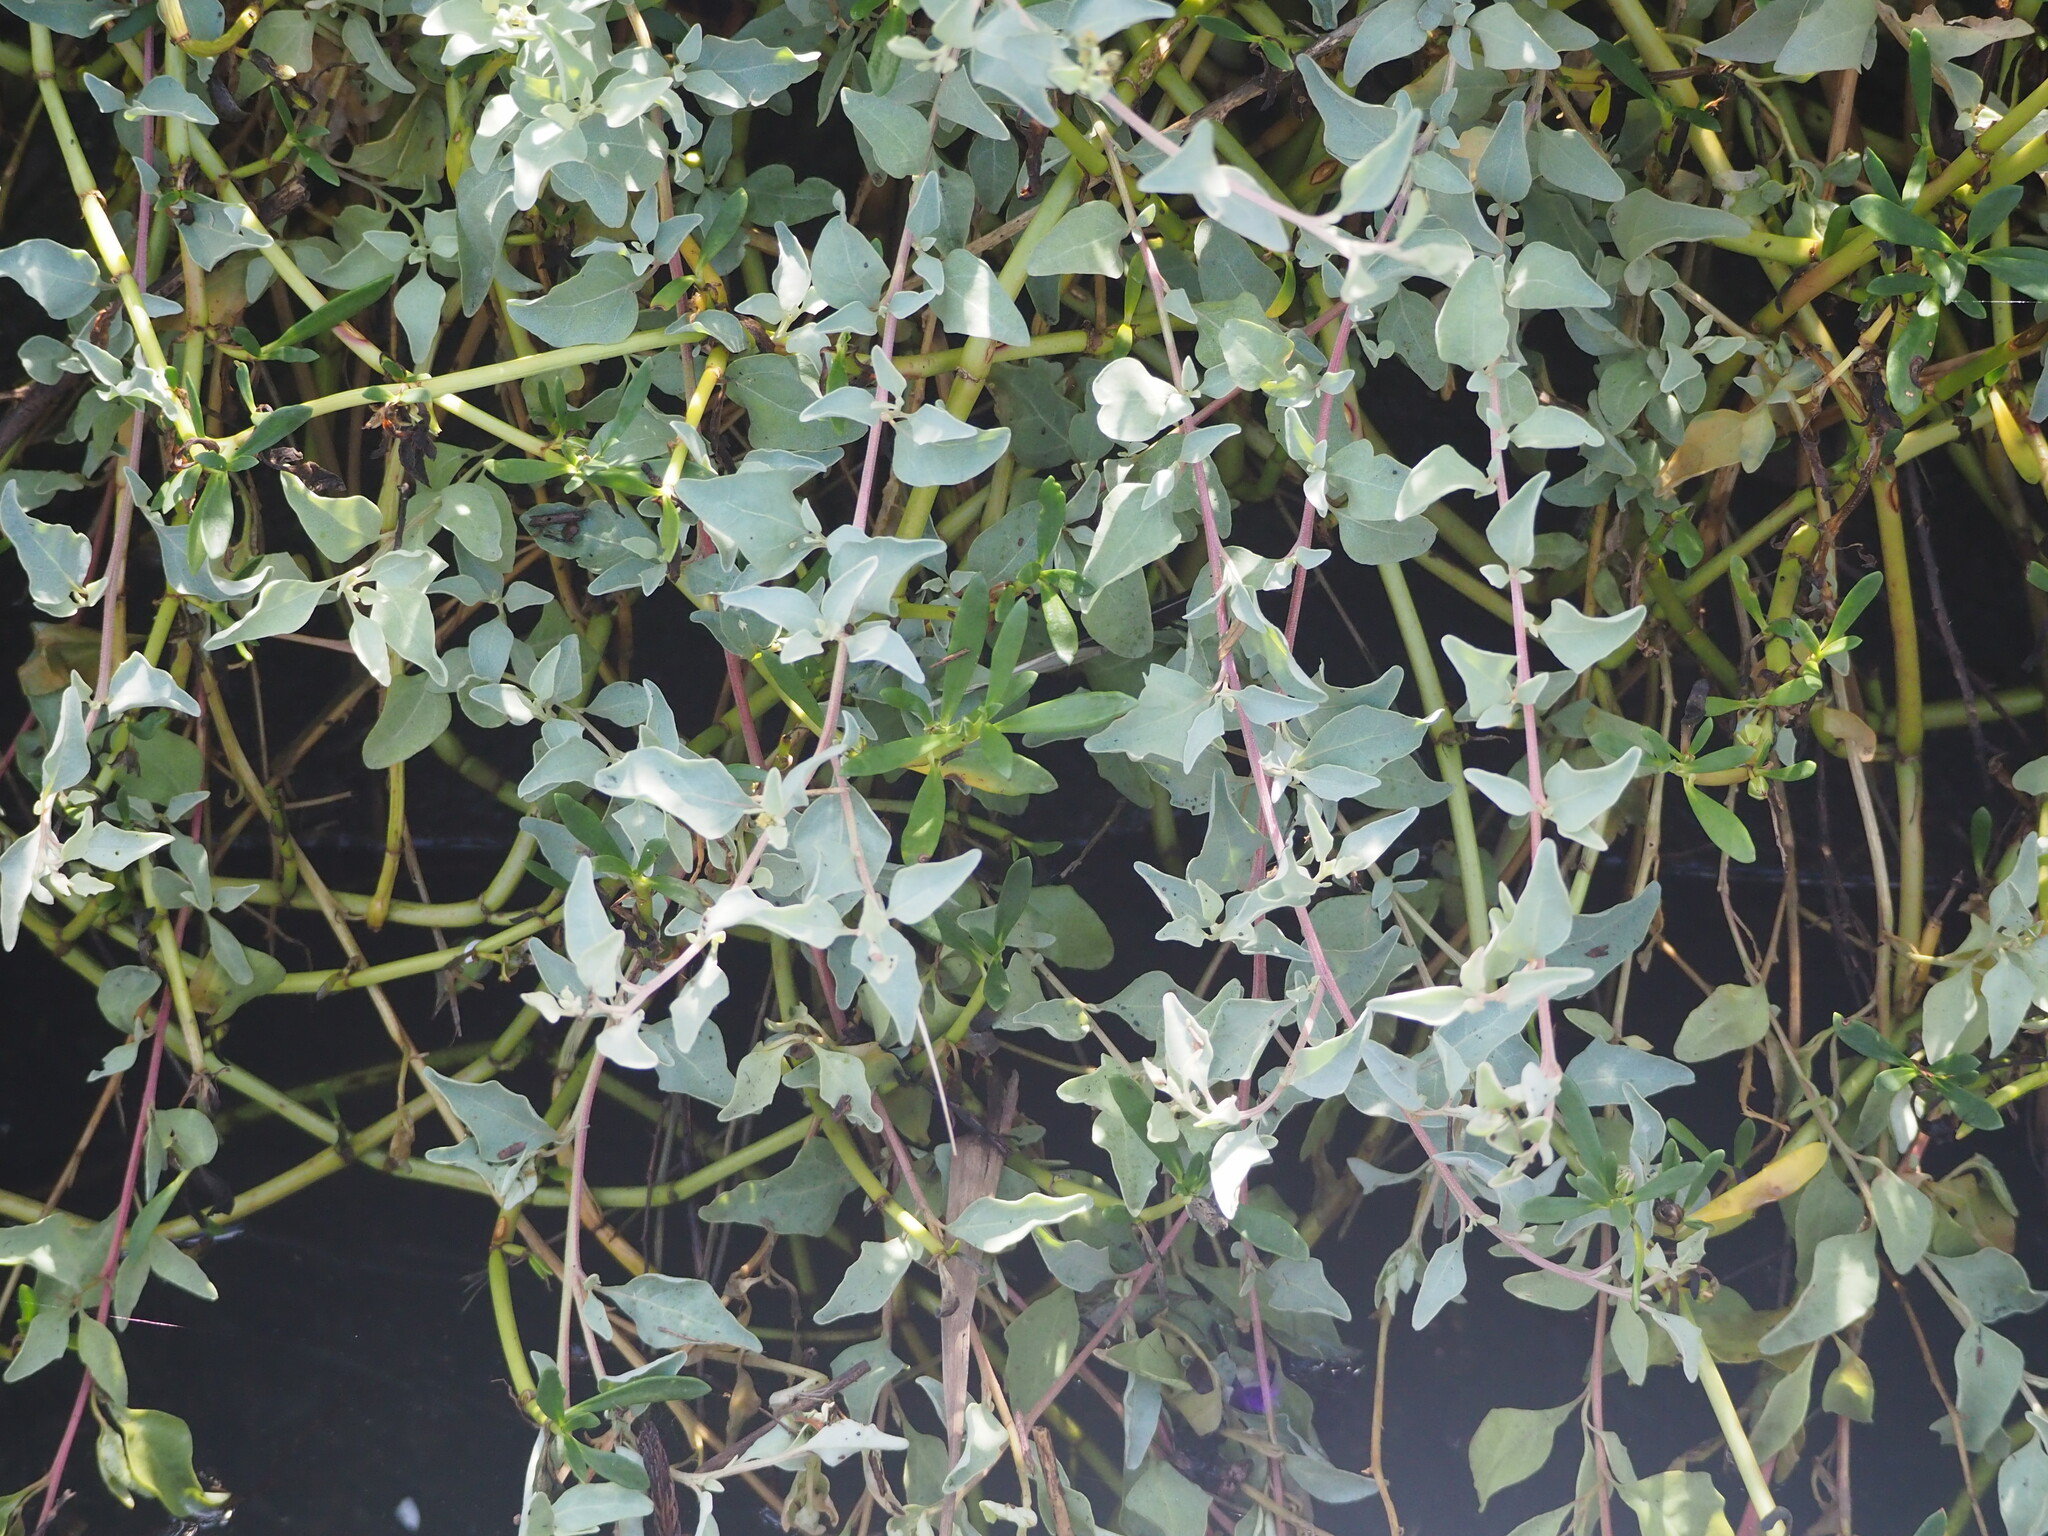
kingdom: Plantae
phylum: Tracheophyta
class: Magnoliopsida
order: Caryophyllales
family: Amaranthaceae
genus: Atriplex
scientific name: Atriplex maximowicziana
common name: Maximowicz's saltbush
